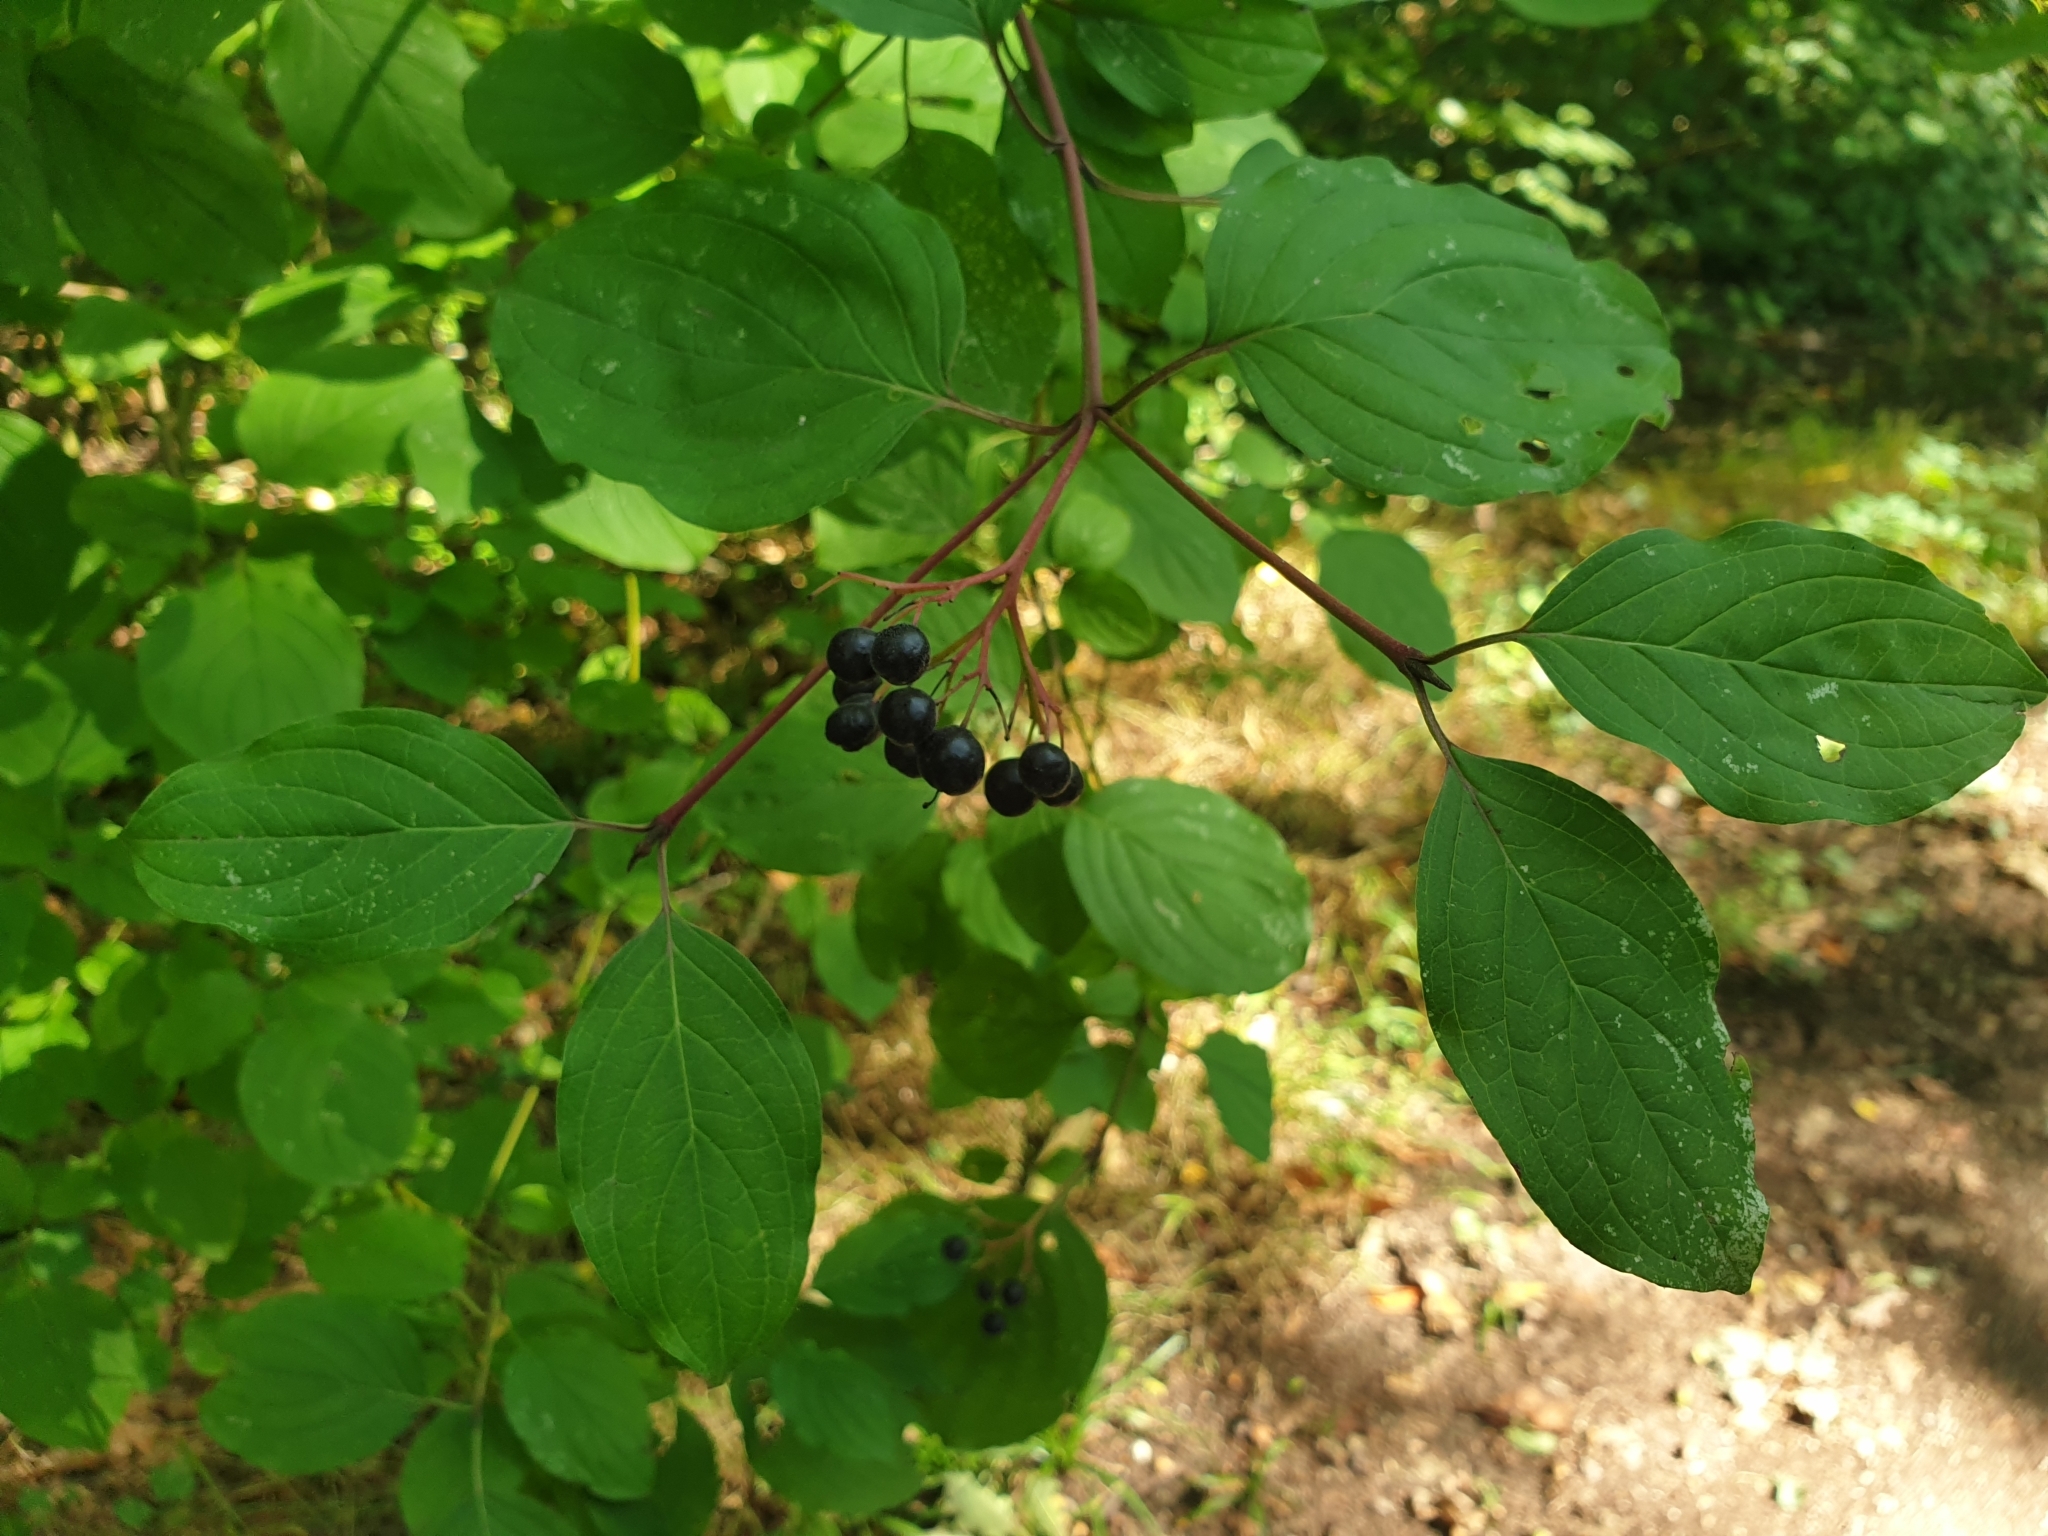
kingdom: Plantae
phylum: Tracheophyta
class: Magnoliopsida
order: Cornales
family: Cornaceae
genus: Cornus
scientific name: Cornus sanguinea
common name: Dogwood
